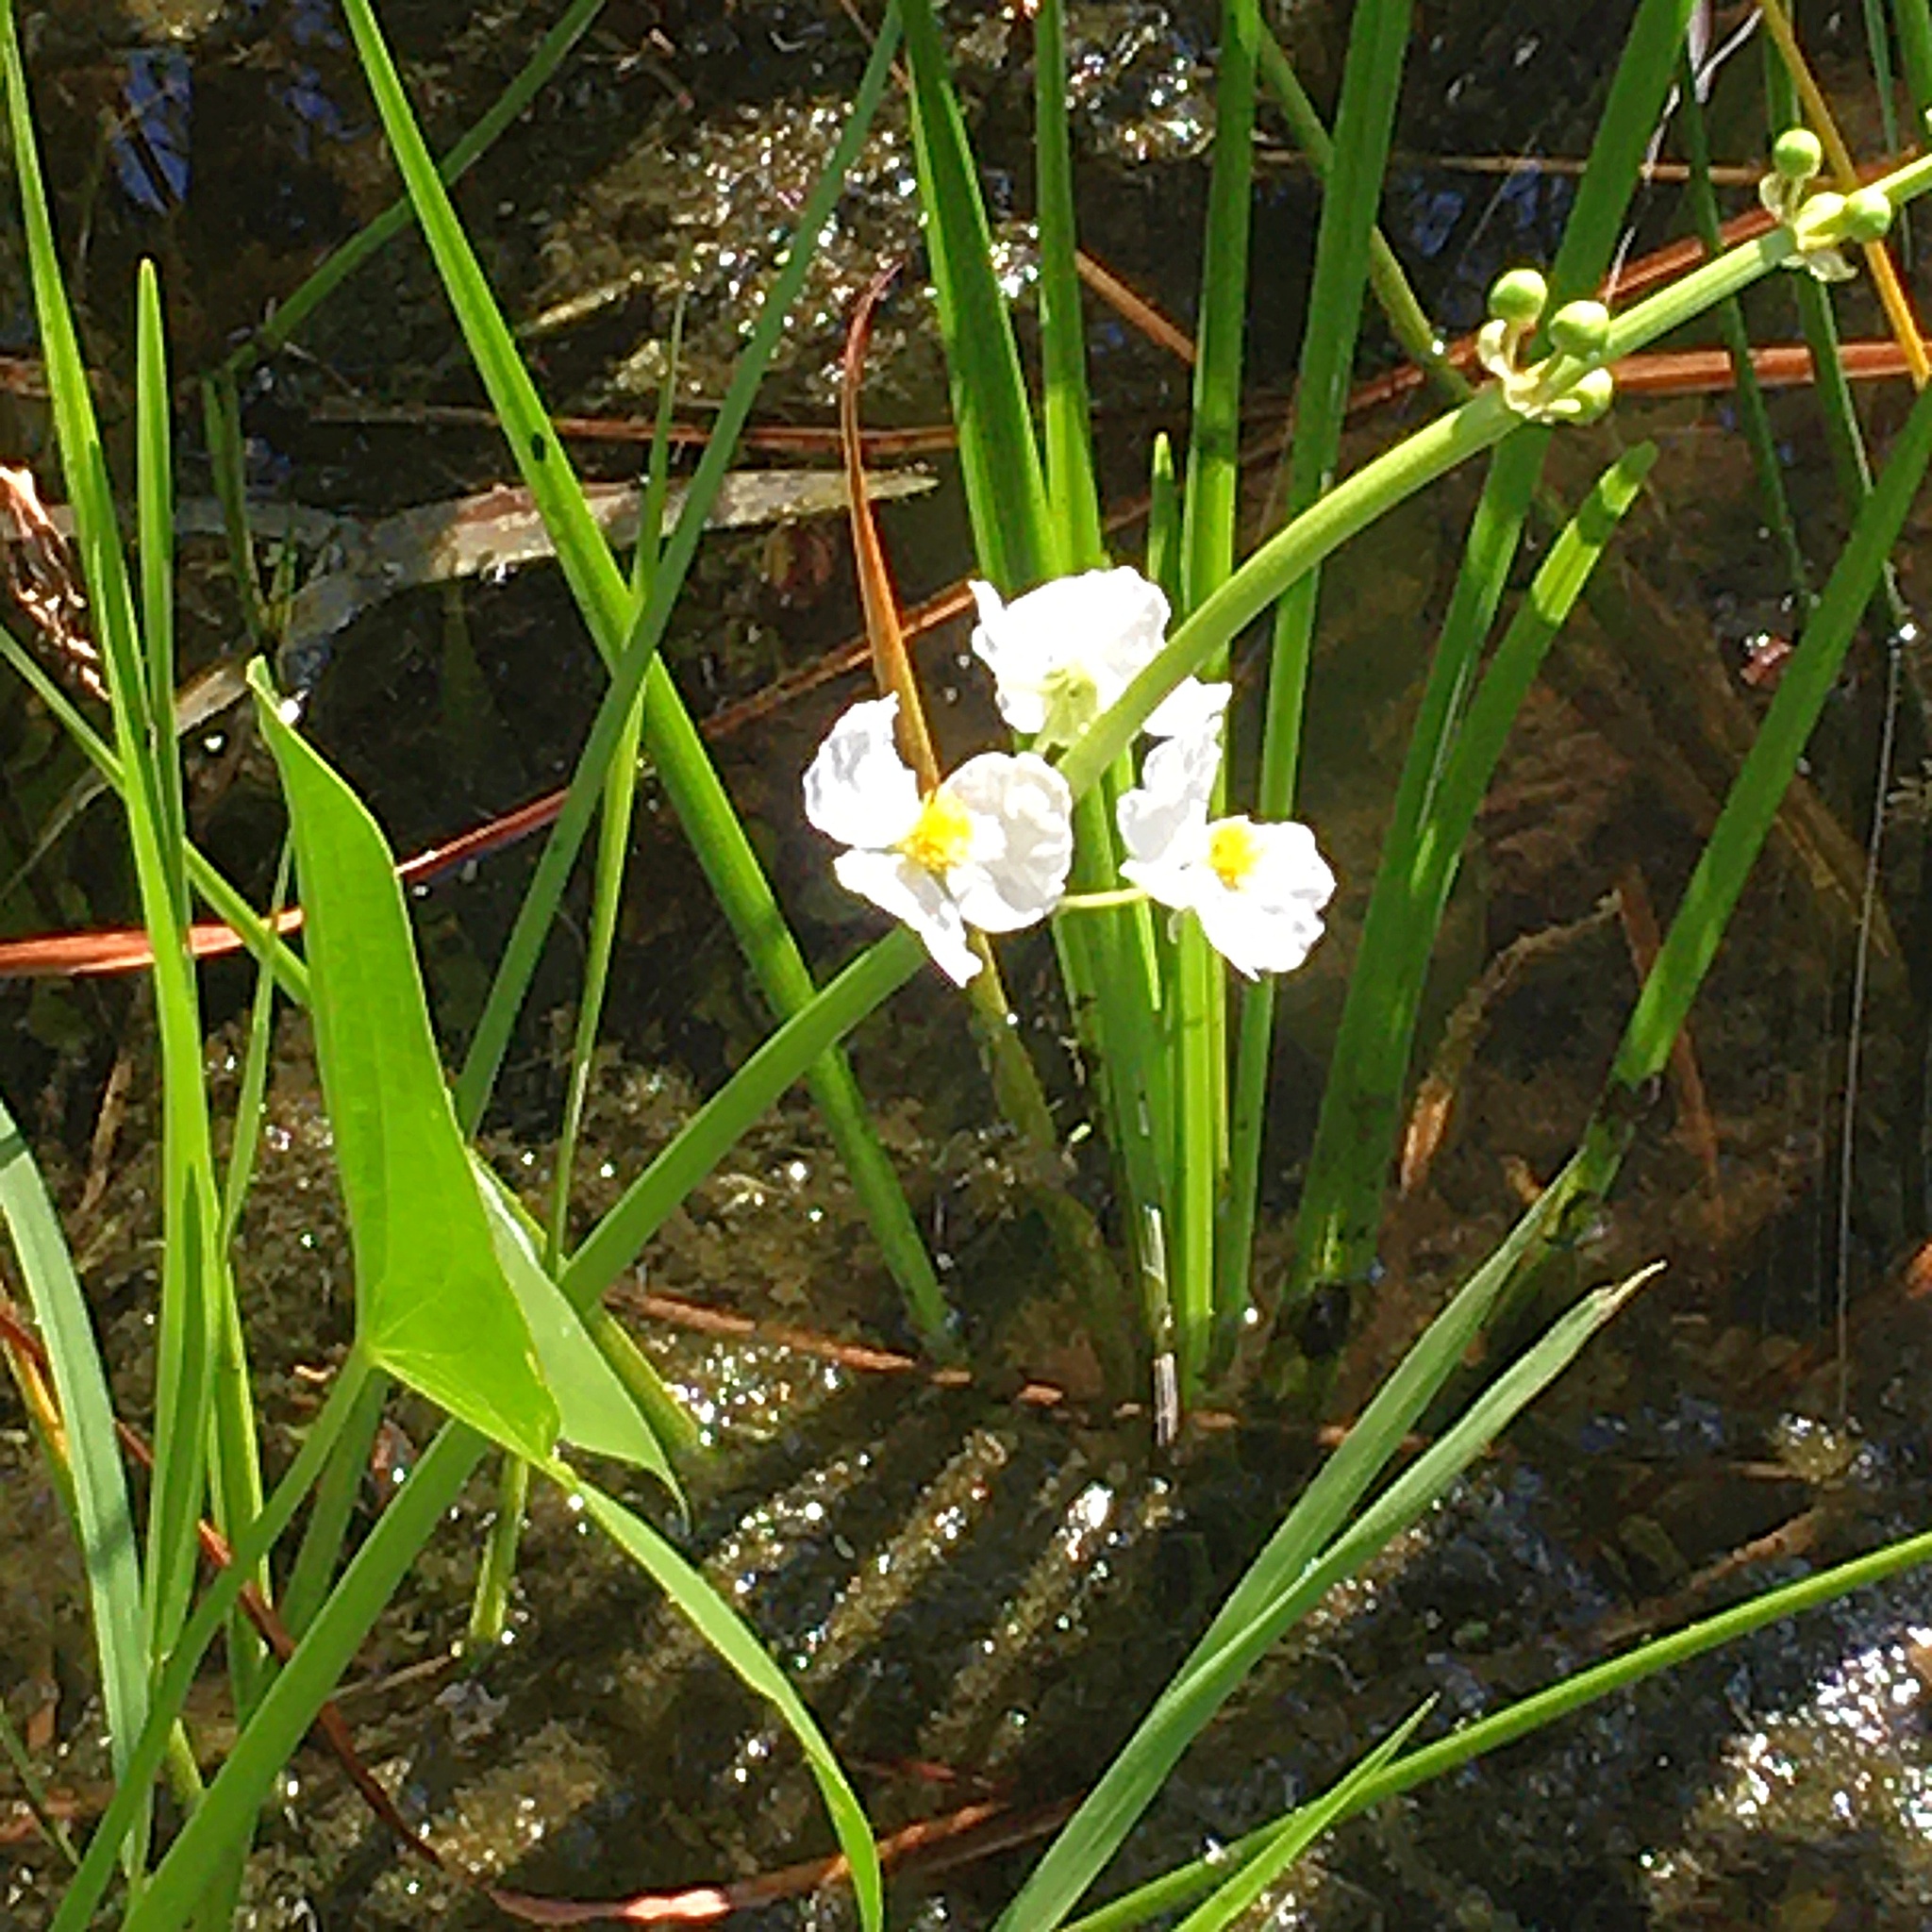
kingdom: Plantae
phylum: Tracheophyta
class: Liliopsida
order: Alismatales
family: Alismataceae
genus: Sagittaria
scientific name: Sagittaria latifolia
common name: Duck-potato
